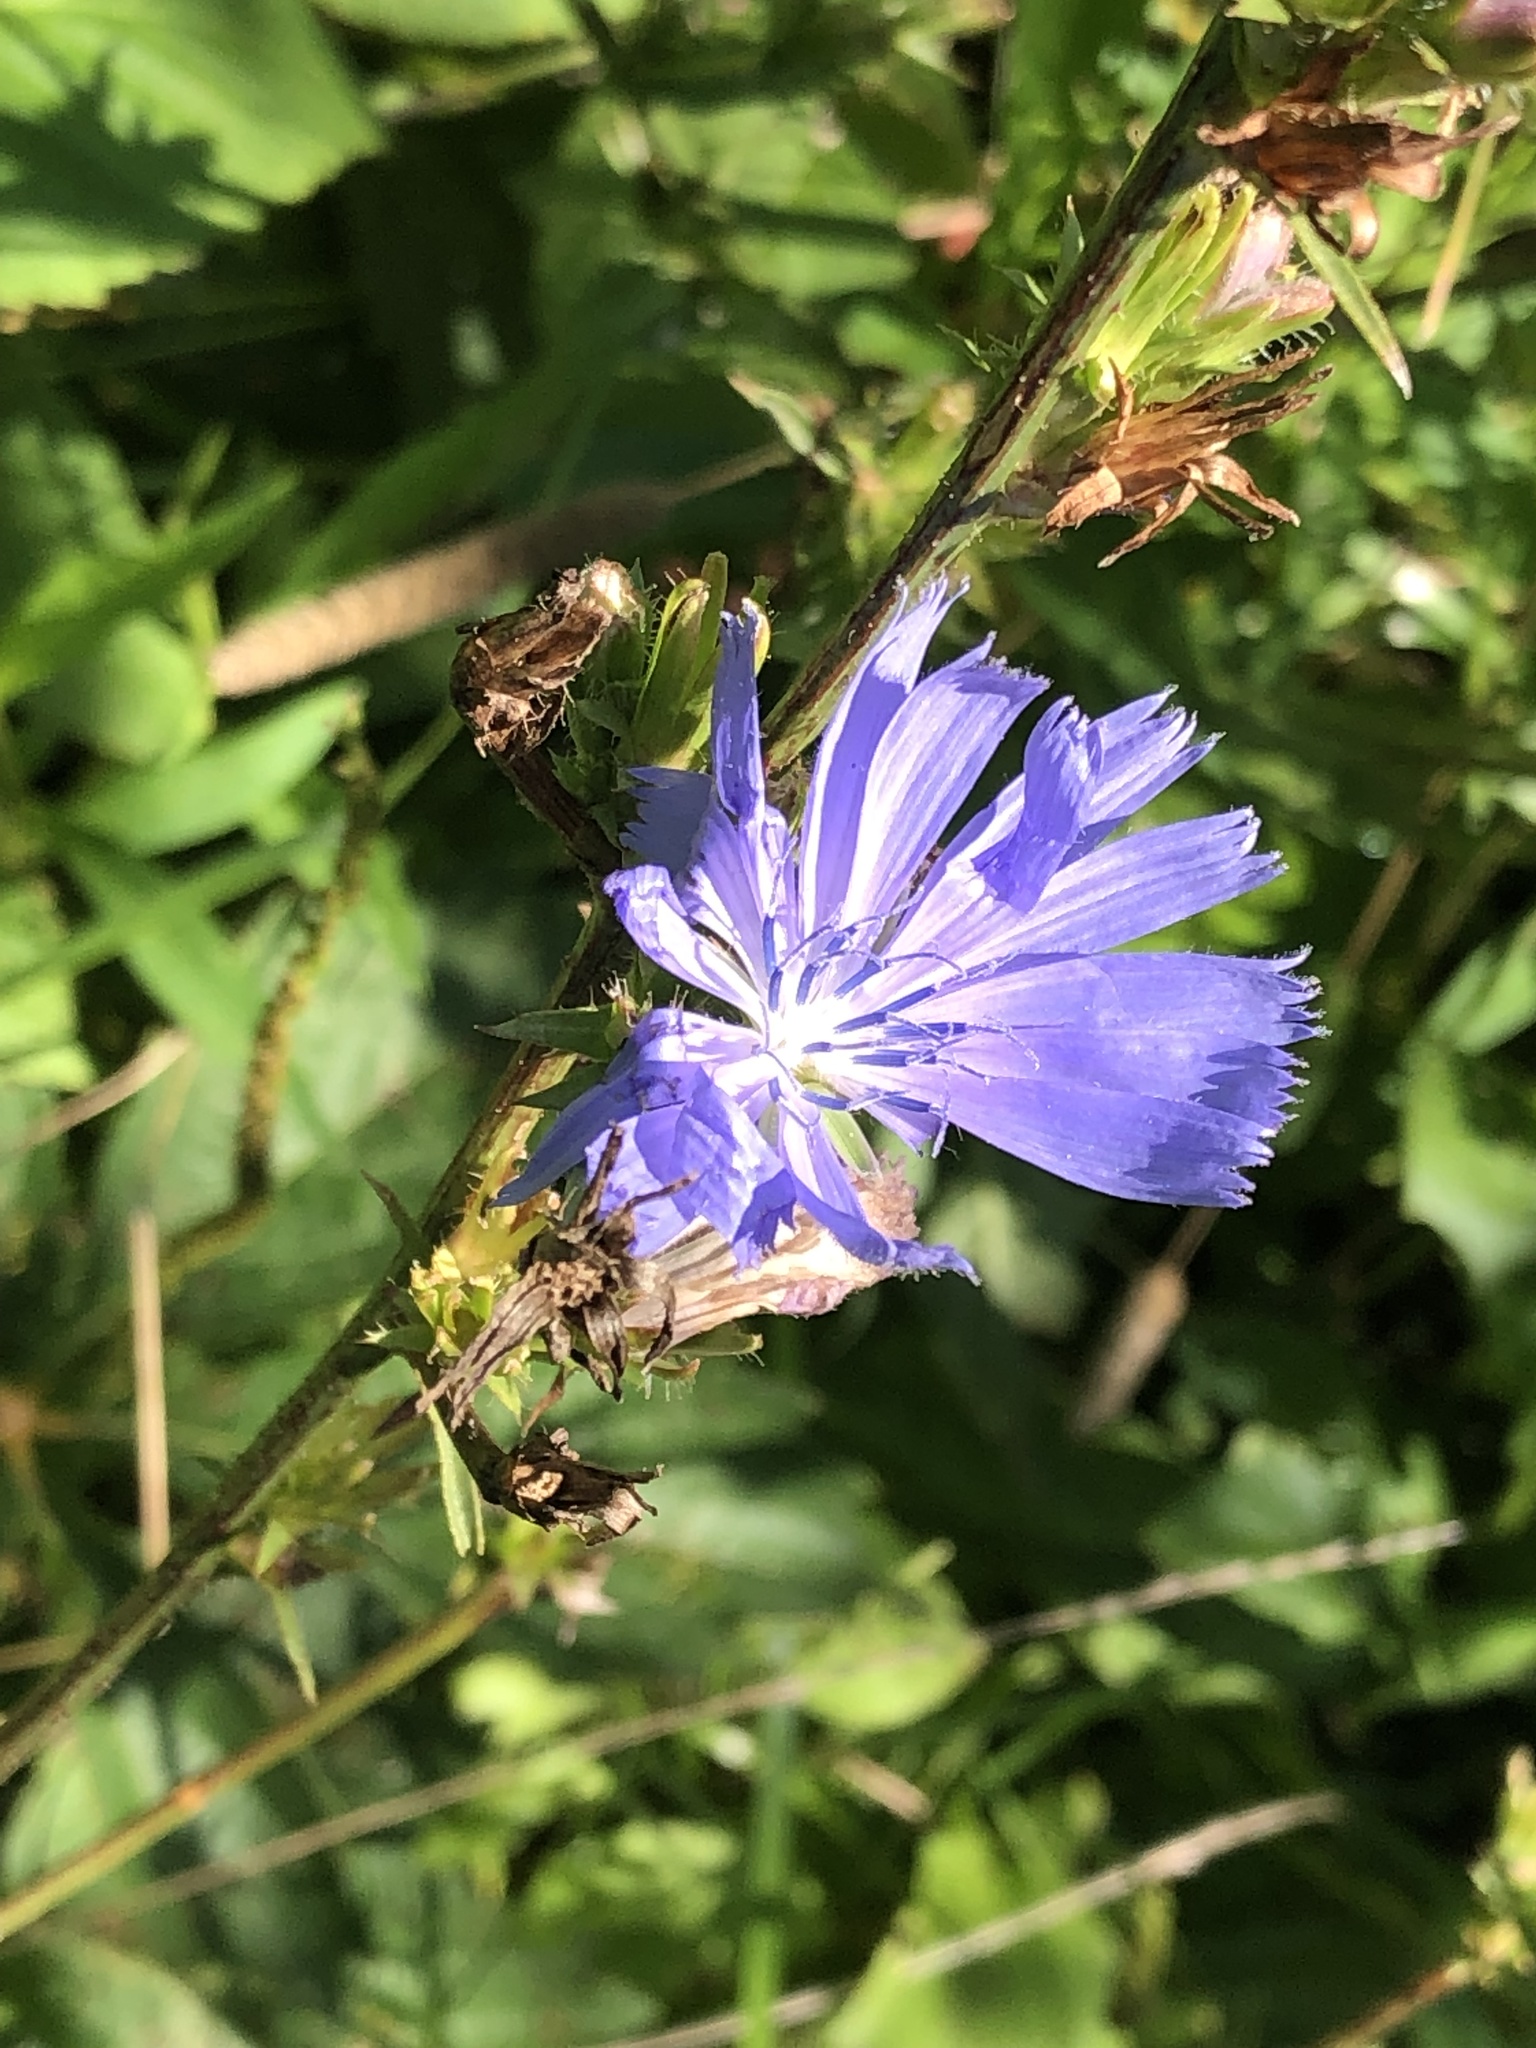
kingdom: Plantae
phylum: Tracheophyta
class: Magnoliopsida
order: Asterales
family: Asteraceae
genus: Cichorium
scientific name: Cichorium intybus
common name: Chicory
